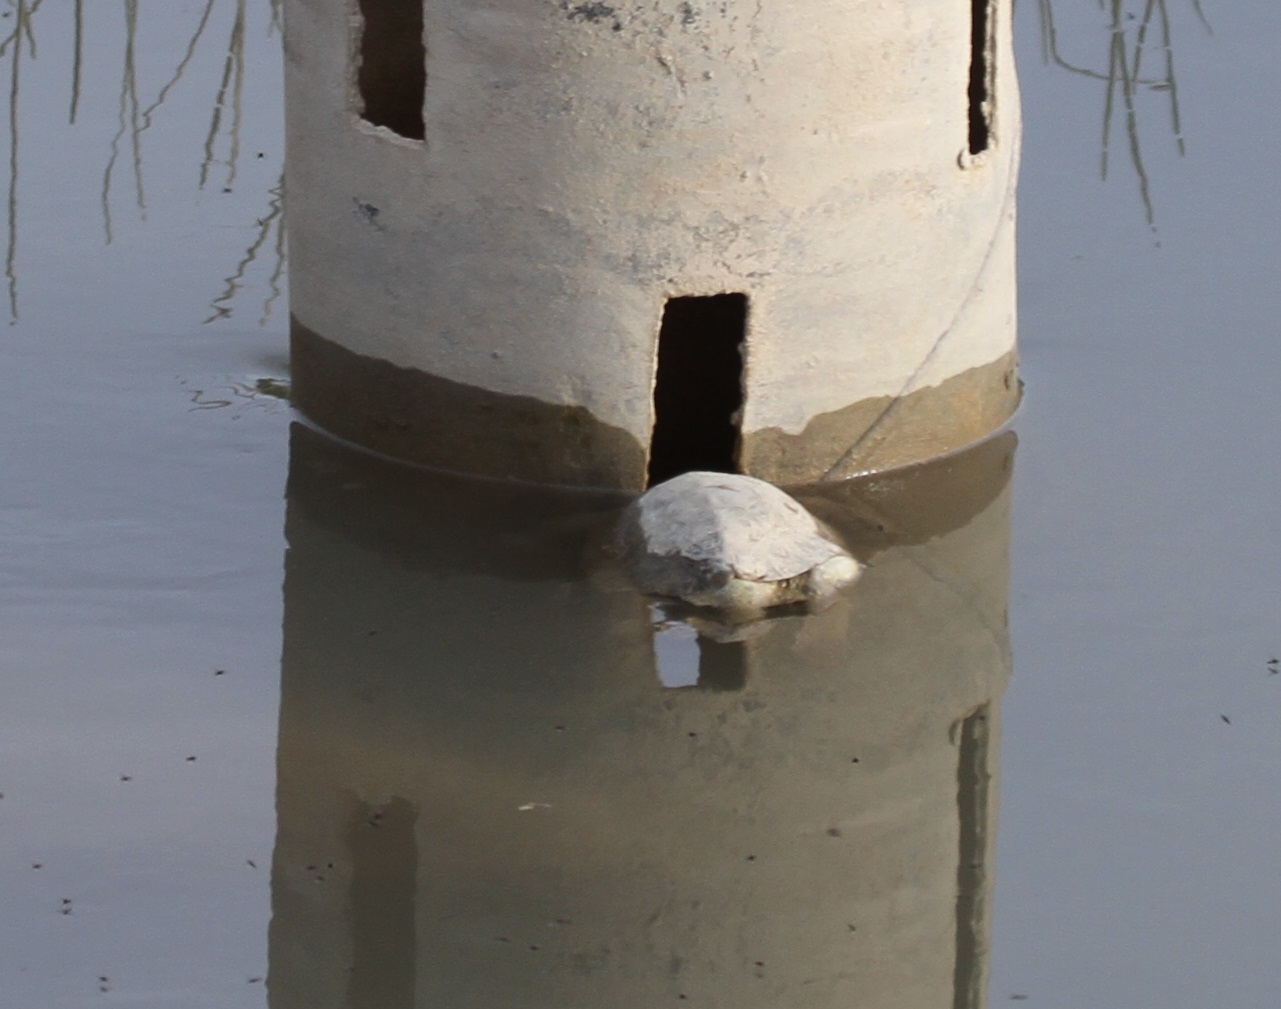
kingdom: Animalia
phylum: Chordata
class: Testudines
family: Geoemydidae
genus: Mauremys
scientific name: Mauremys leprosa
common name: Mediterranean pond turtle
